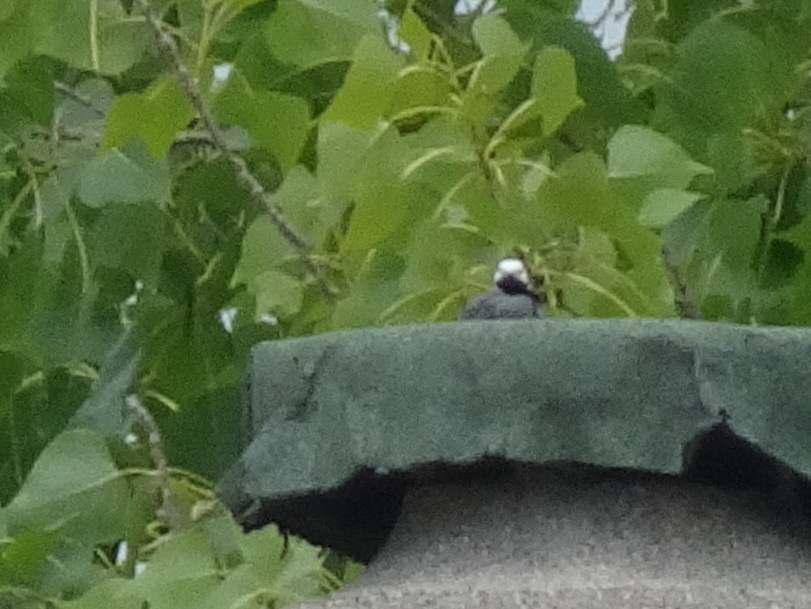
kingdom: Animalia
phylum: Chordata
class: Aves
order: Passeriformes
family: Motacillidae
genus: Motacilla
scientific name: Motacilla alba
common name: White wagtail
